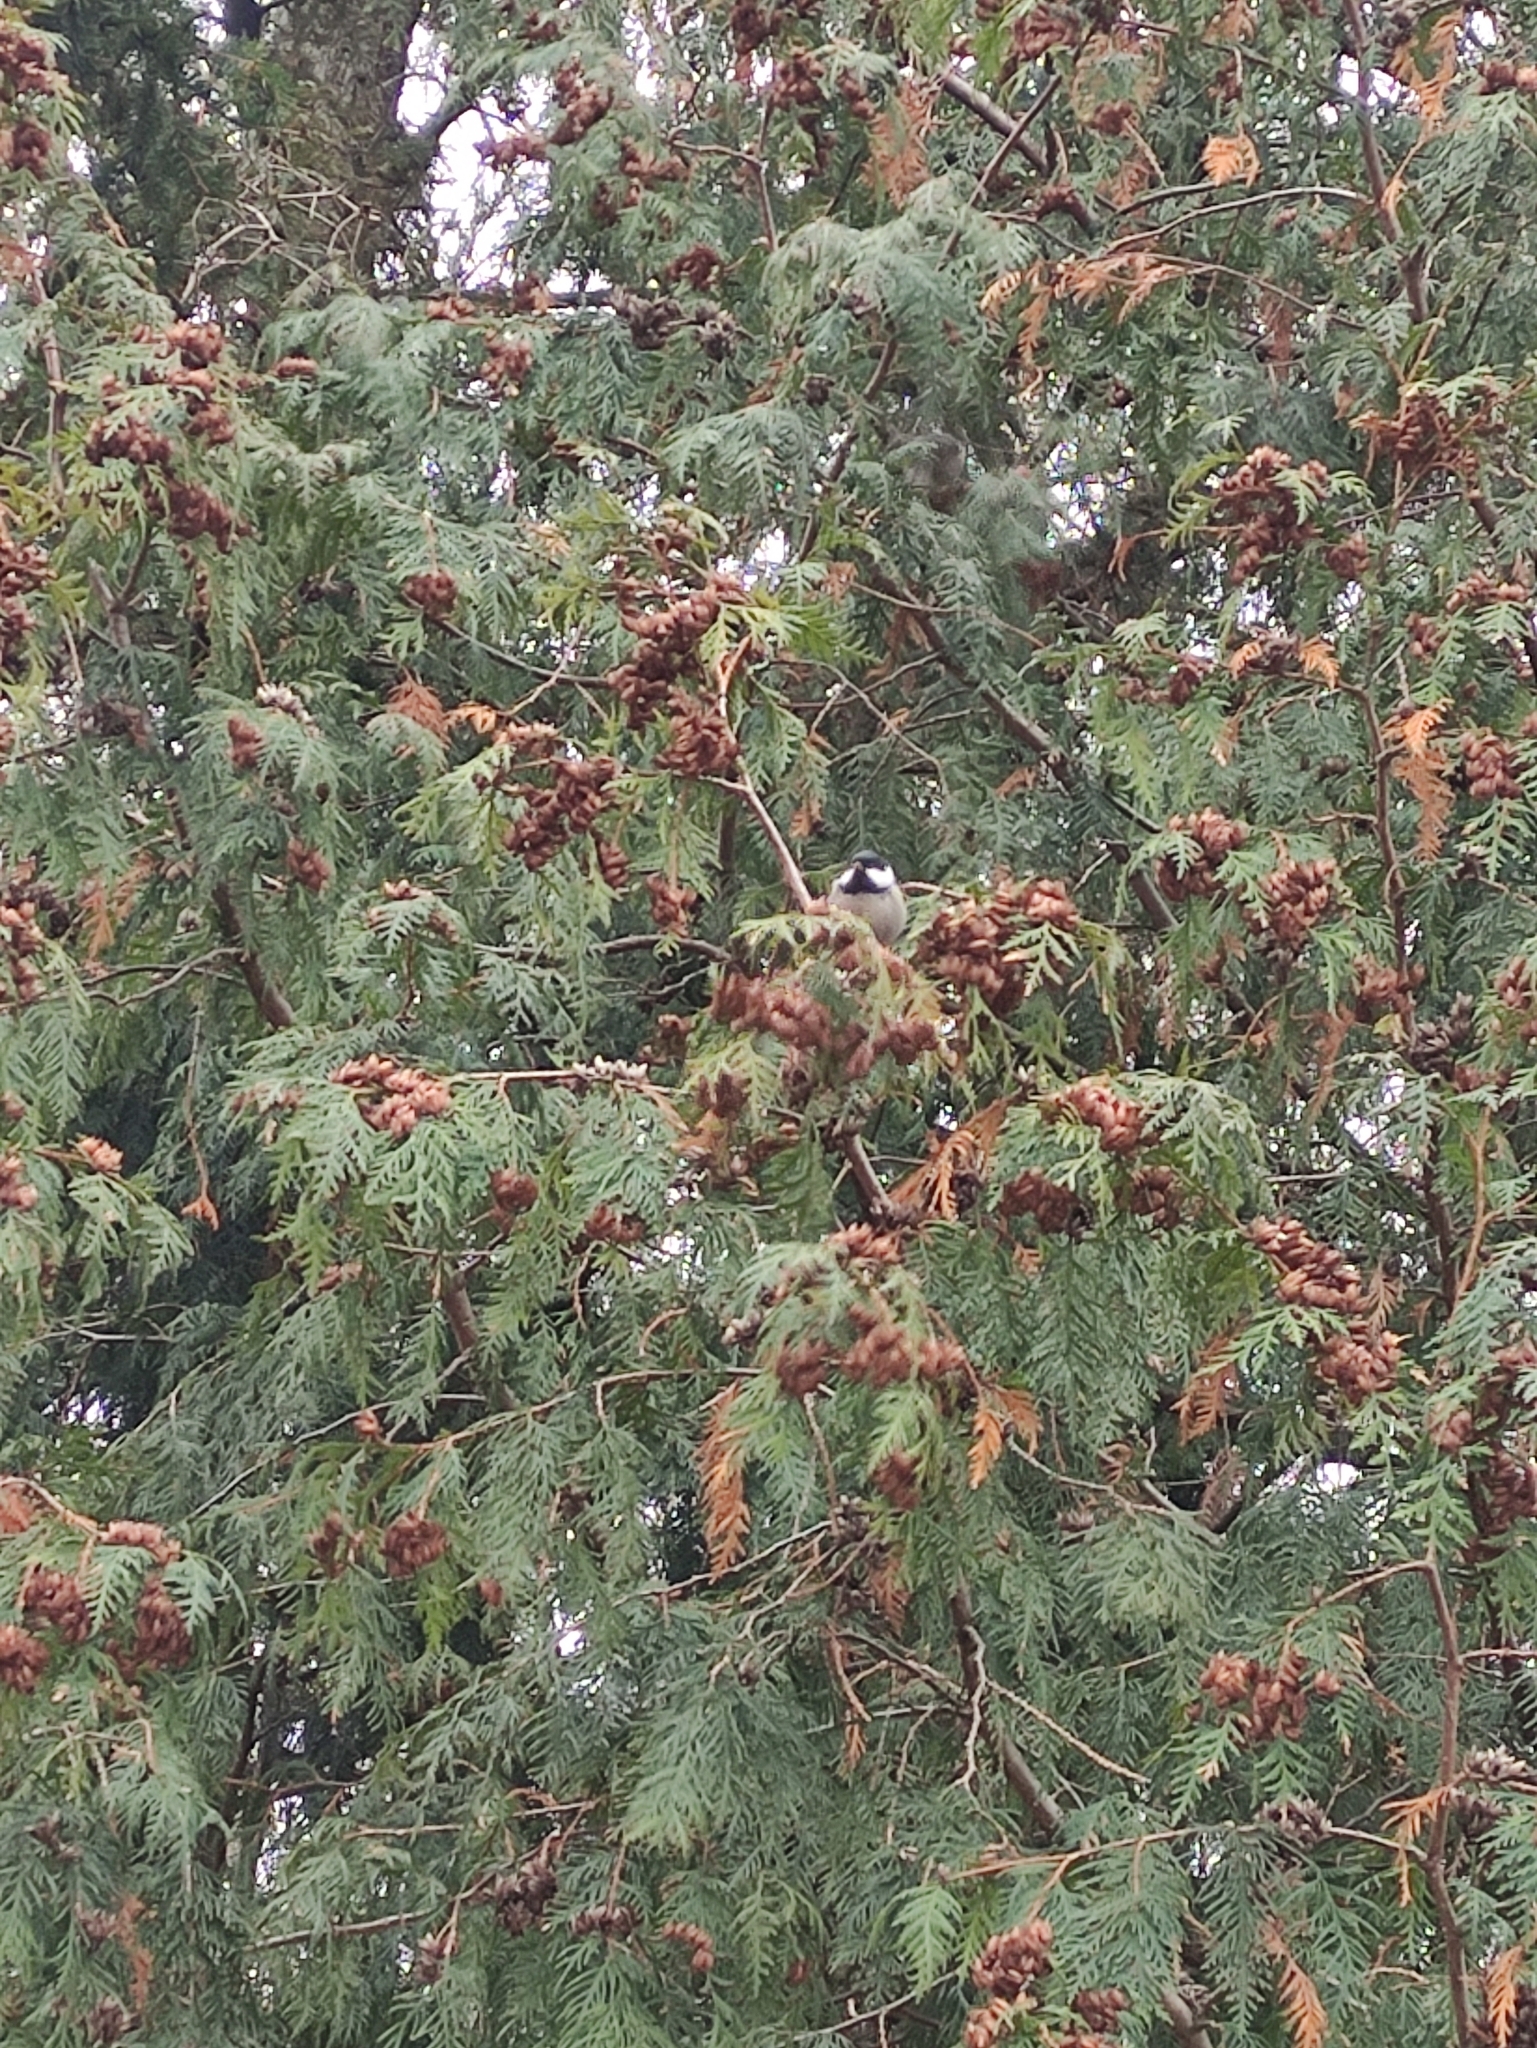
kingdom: Animalia
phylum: Chordata
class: Aves
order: Passeriformes
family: Paridae
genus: Periparus
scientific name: Periparus ater
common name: Coal tit
